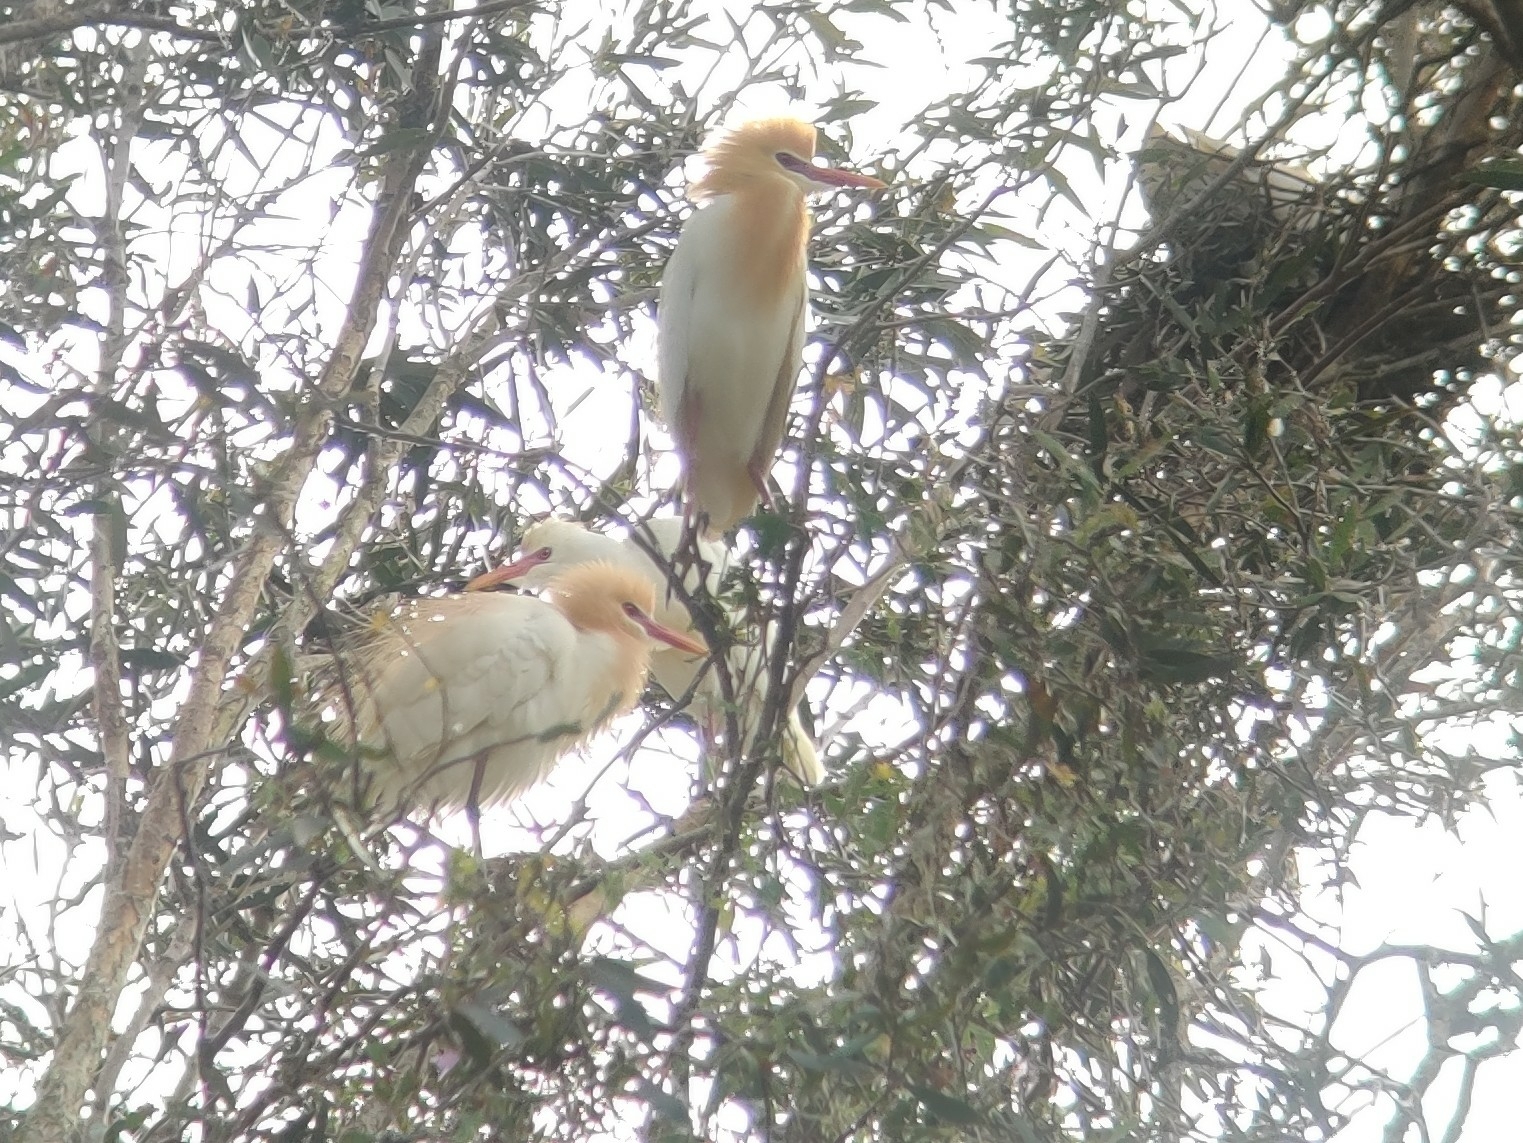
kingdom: Animalia
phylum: Chordata
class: Aves
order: Pelecaniformes
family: Ardeidae
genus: Bubulcus
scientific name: Bubulcus coromandus
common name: Eastern cattle egret
